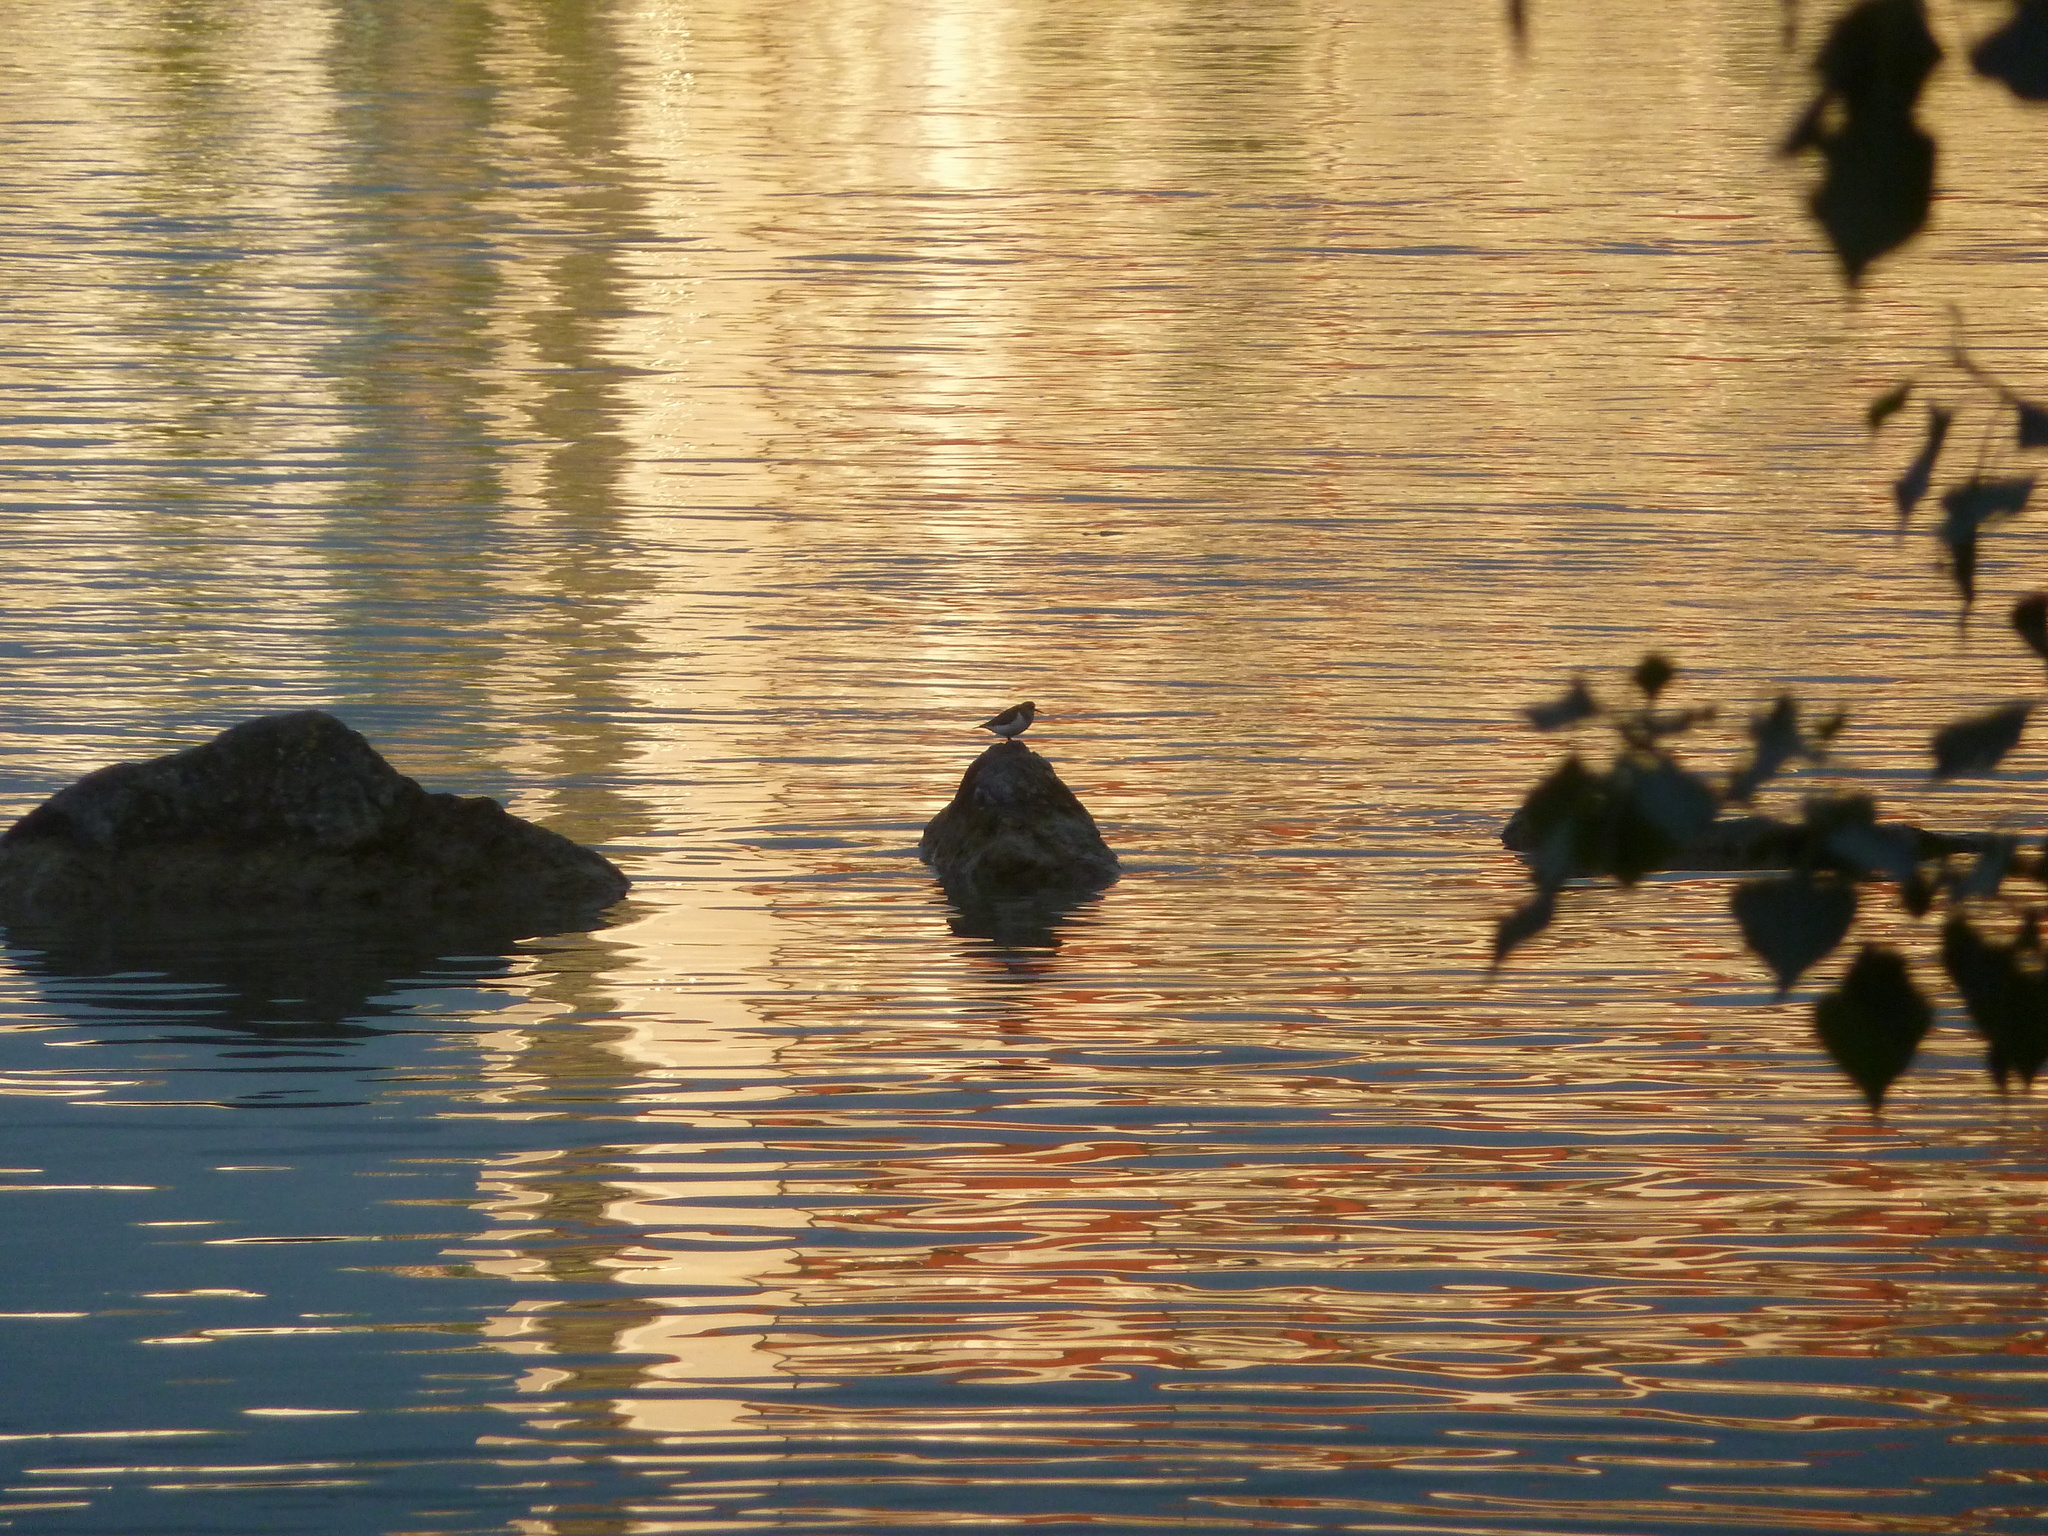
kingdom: Animalia
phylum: Chordata
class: Aves
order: Charadriiformes
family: Scolopacidae
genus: Actitis
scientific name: Actitis hypoleucos
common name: Common sandpiper
